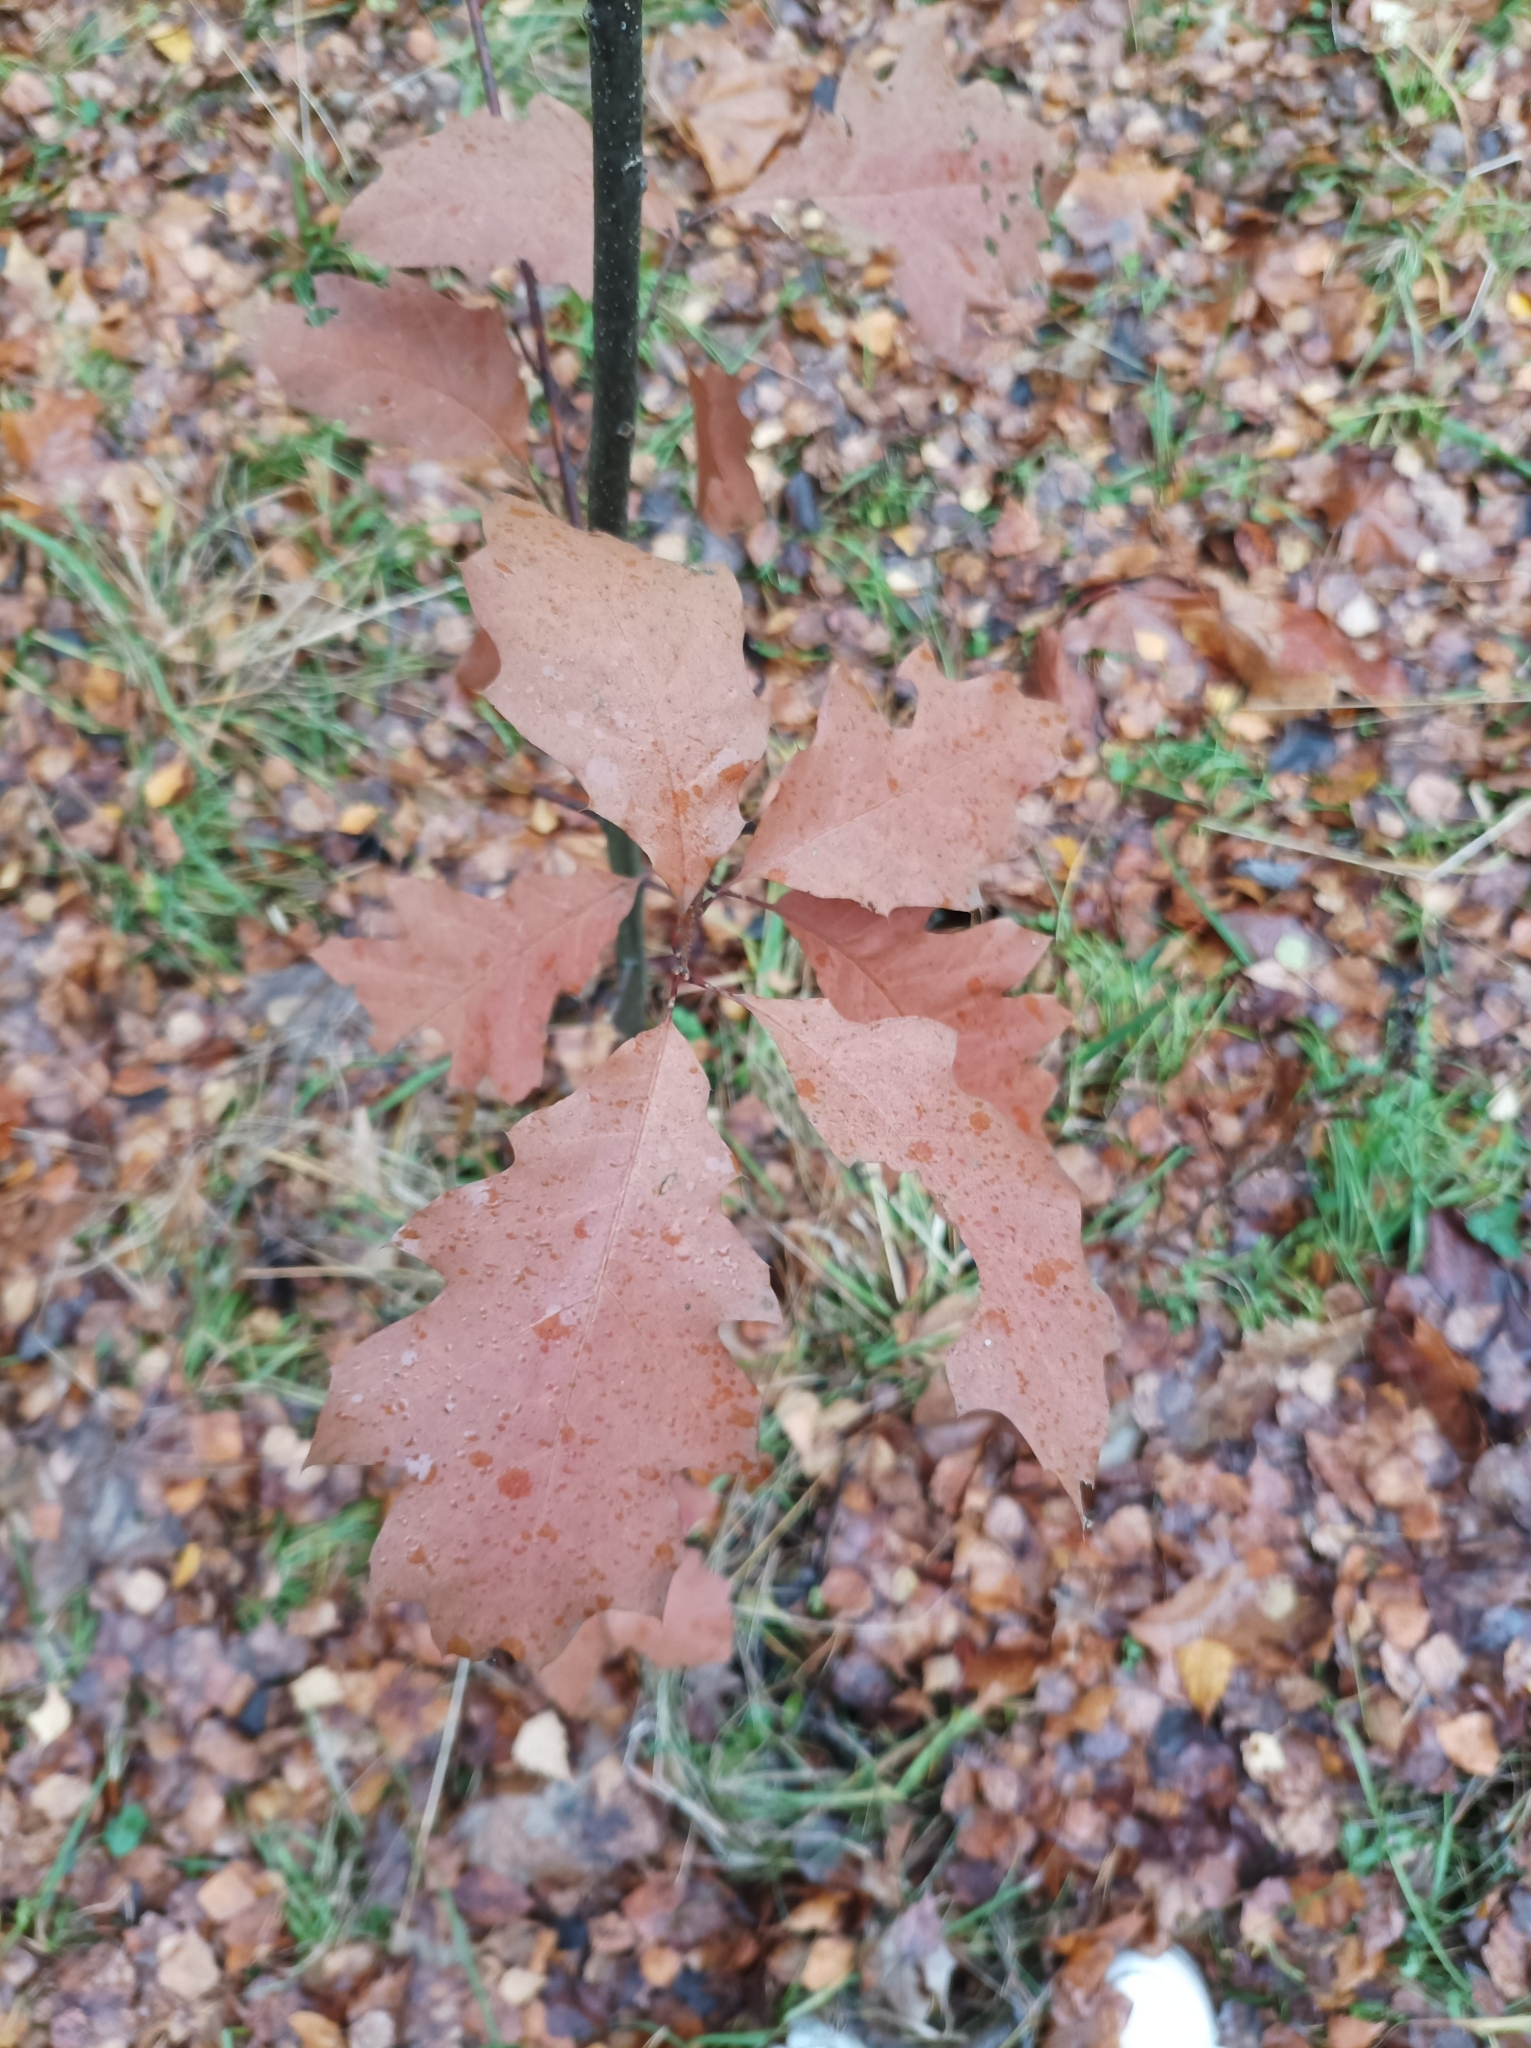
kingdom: Plantae
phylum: Tracheophyta
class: Magnoliopsida
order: Fagales
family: Fagaceae
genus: Quercus
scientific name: Quercus rubra
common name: Red oak
